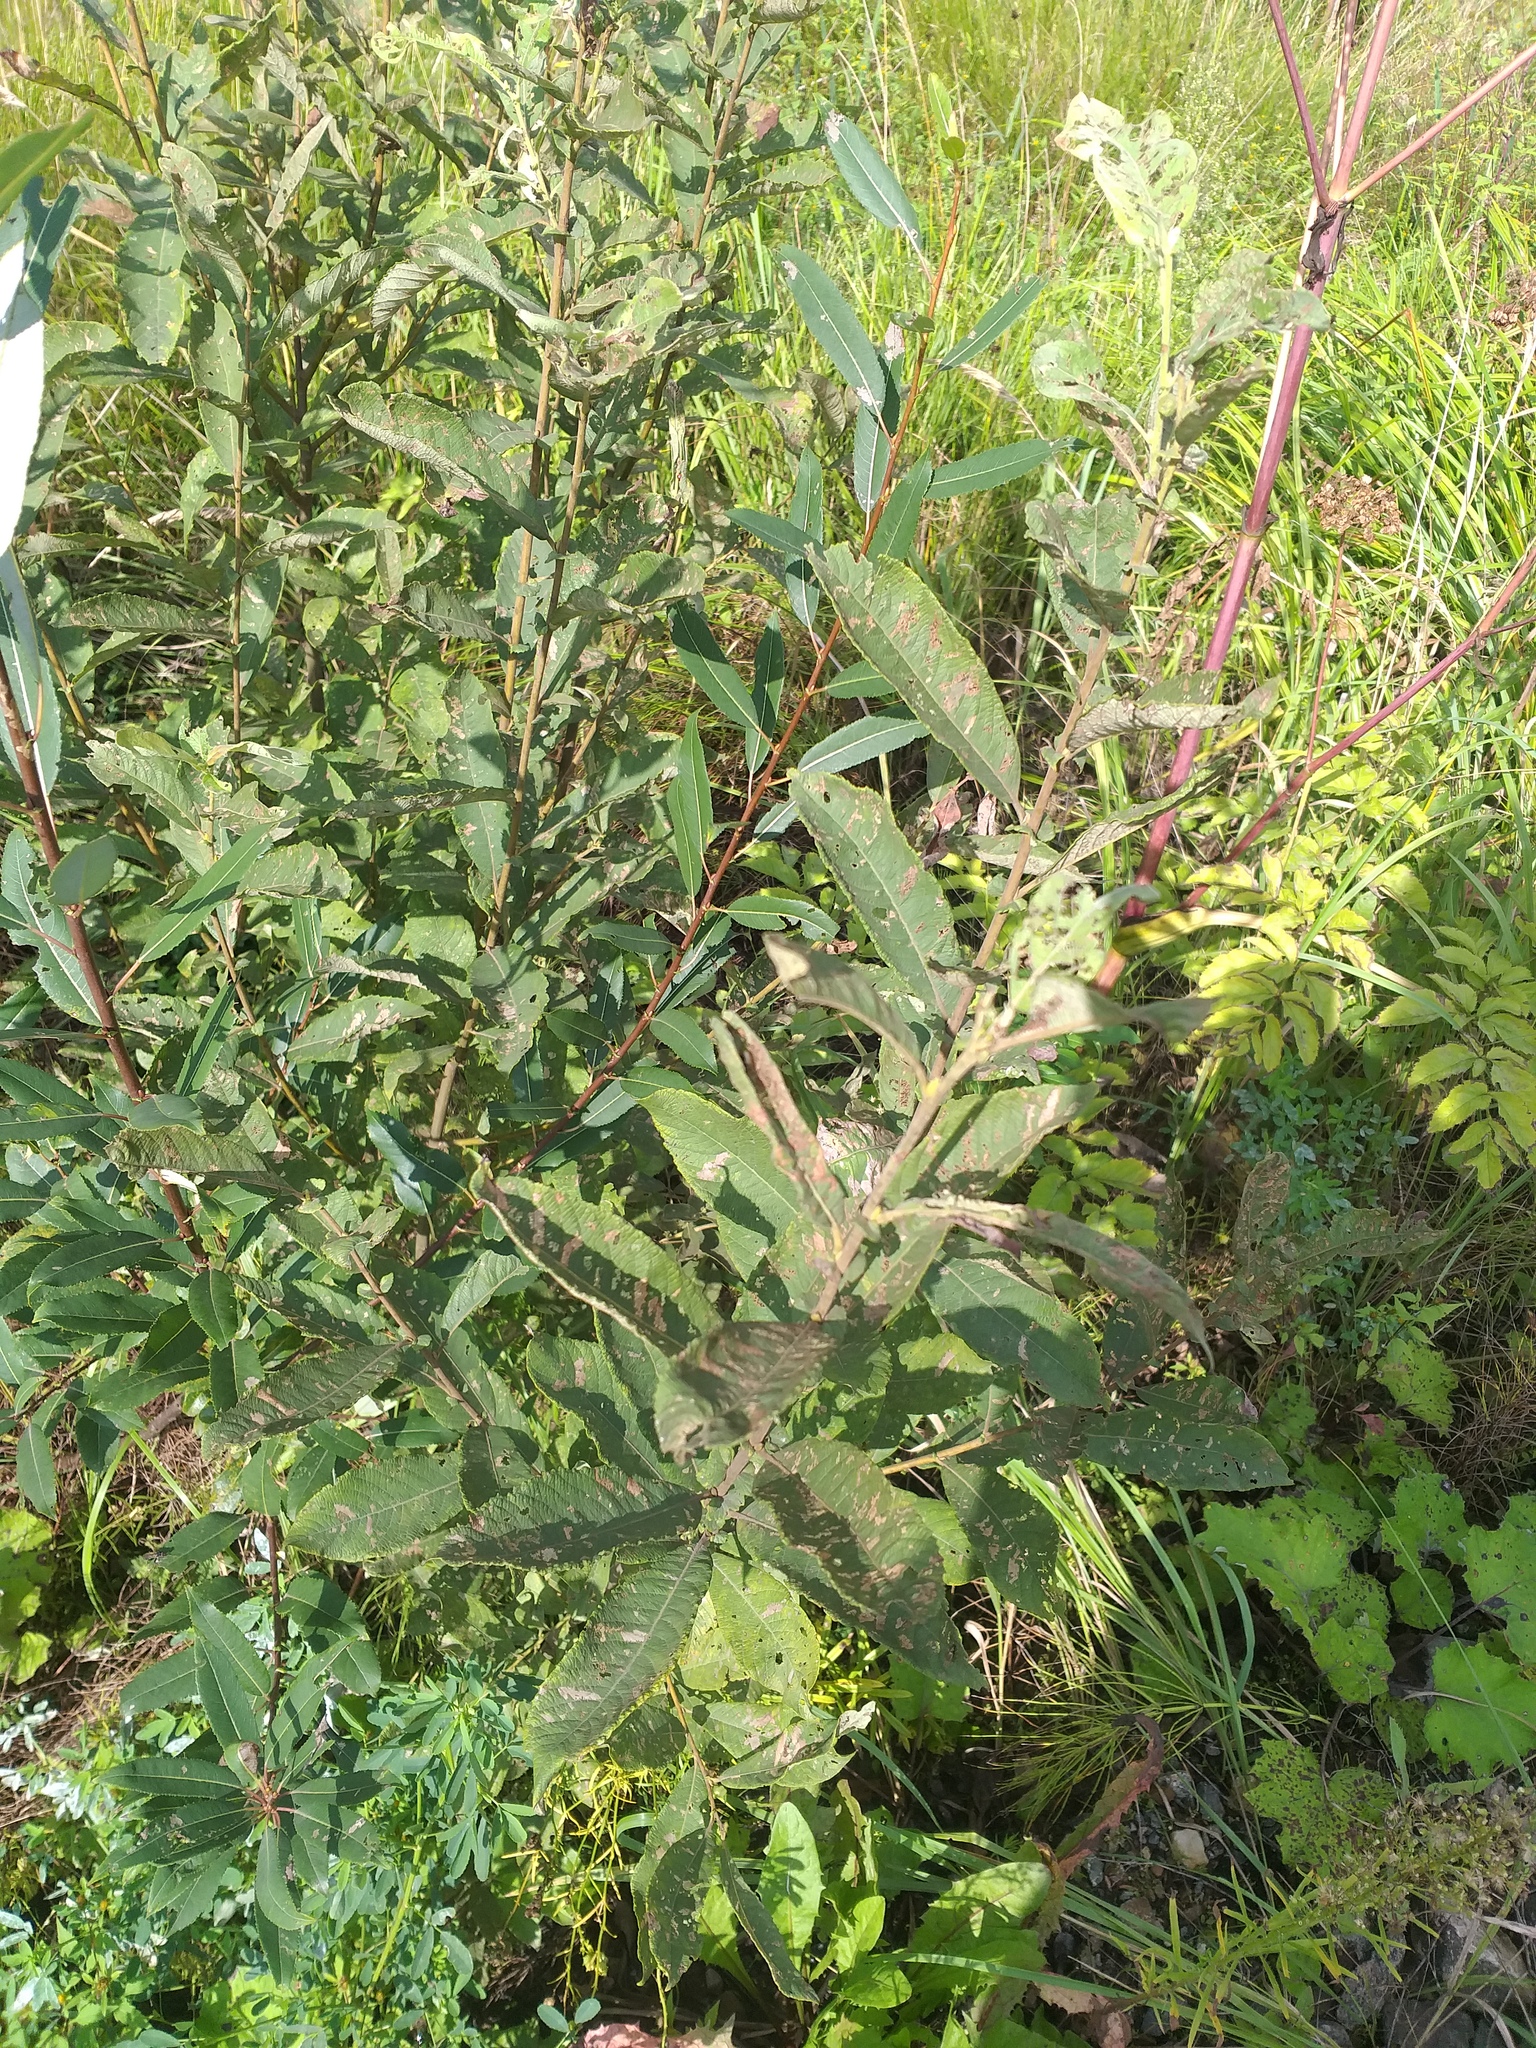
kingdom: Plantae
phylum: Tracheophyta
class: Magnoliopsida
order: Malpighiales
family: Salicaceae
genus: Salix
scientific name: Salix cinerea
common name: Common sallow
